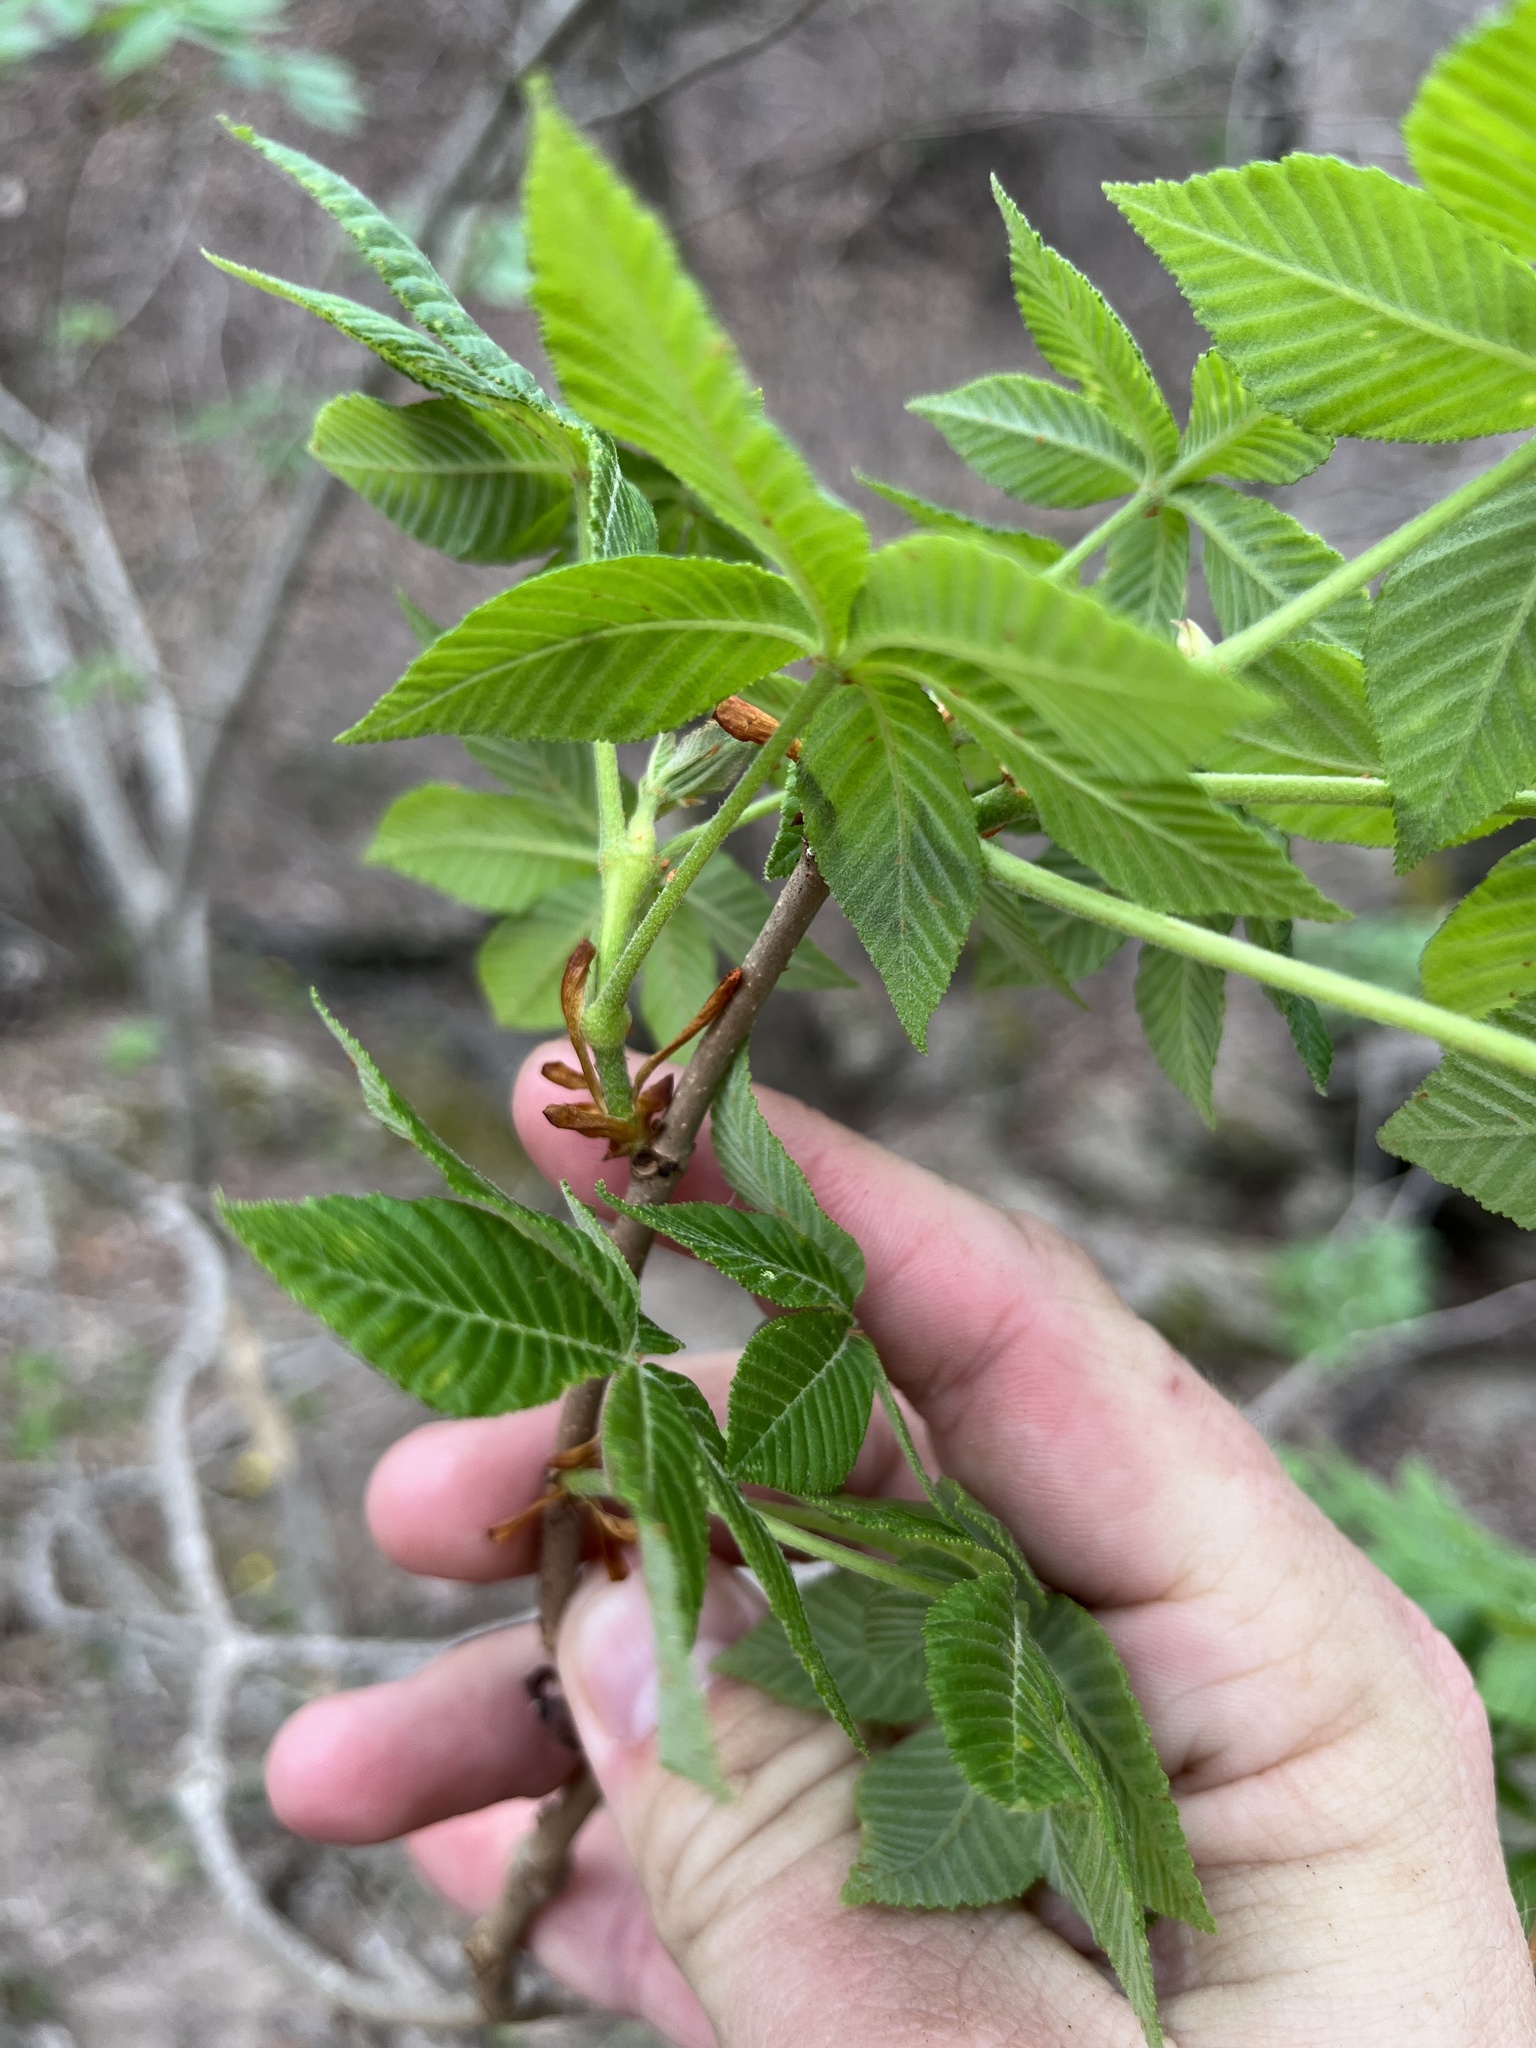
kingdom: Plantae
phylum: Tracheophyta
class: Magnoliopsida
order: Sapindales
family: Sapindaceae
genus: Aesculus
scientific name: Aesculus pavia
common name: Red buckeye
